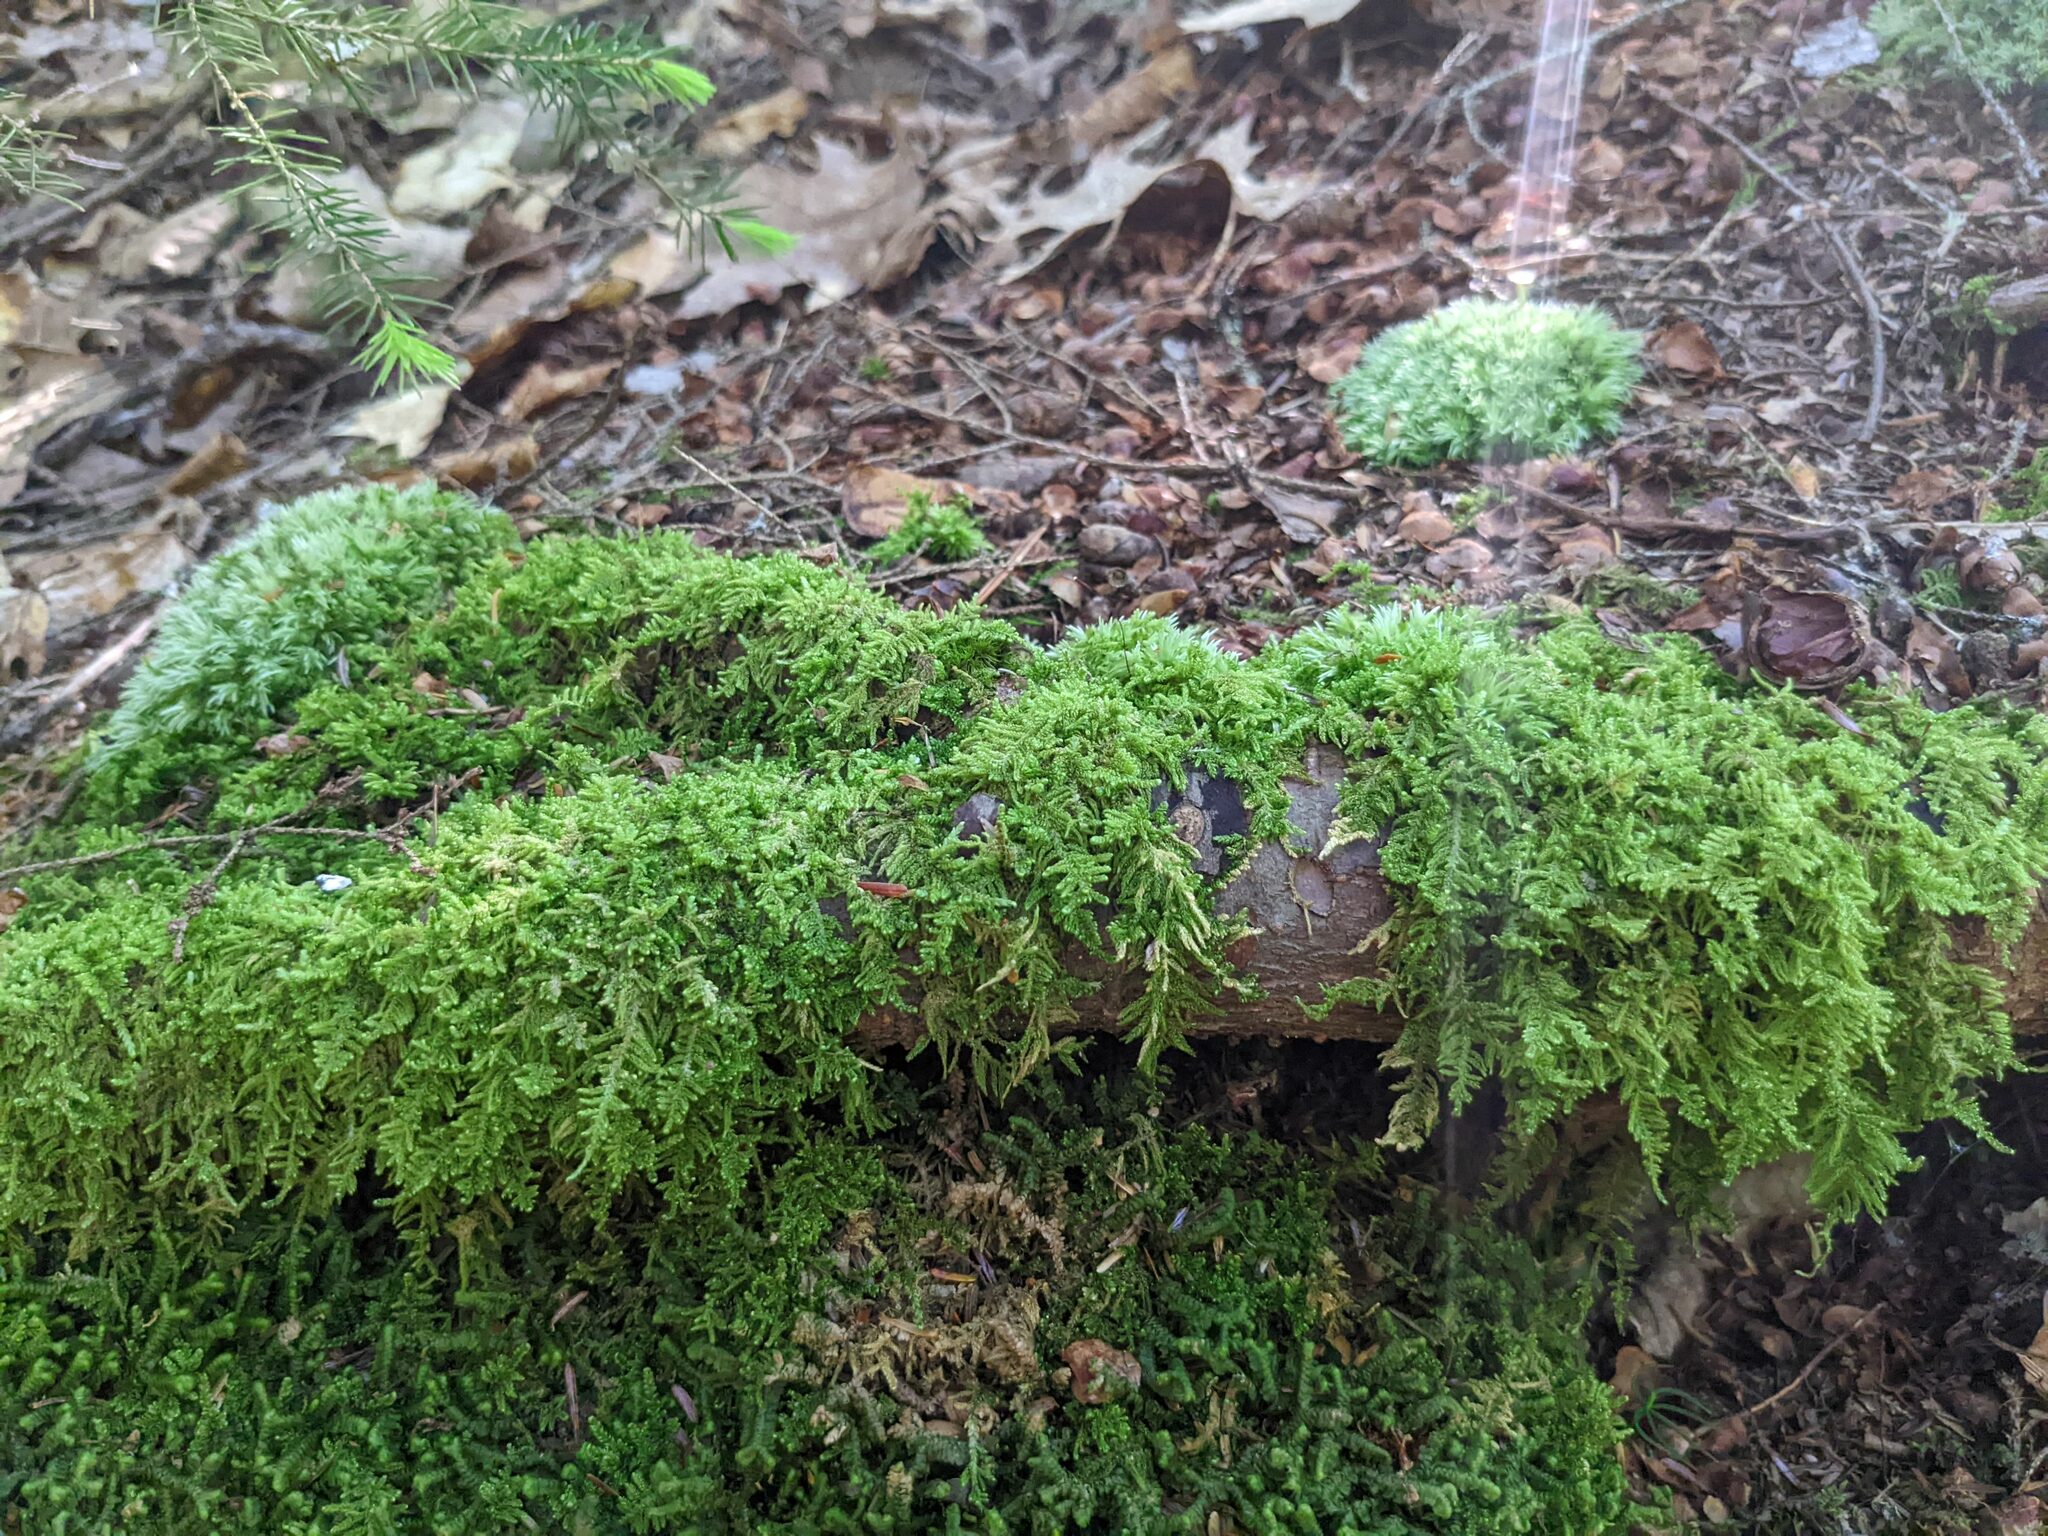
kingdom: Plantae
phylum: Bryophyta
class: Bryopsida
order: Hypnales
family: Callicladiaceae
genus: Callicladium
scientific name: Callicladium imponens
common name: Brocade moss
